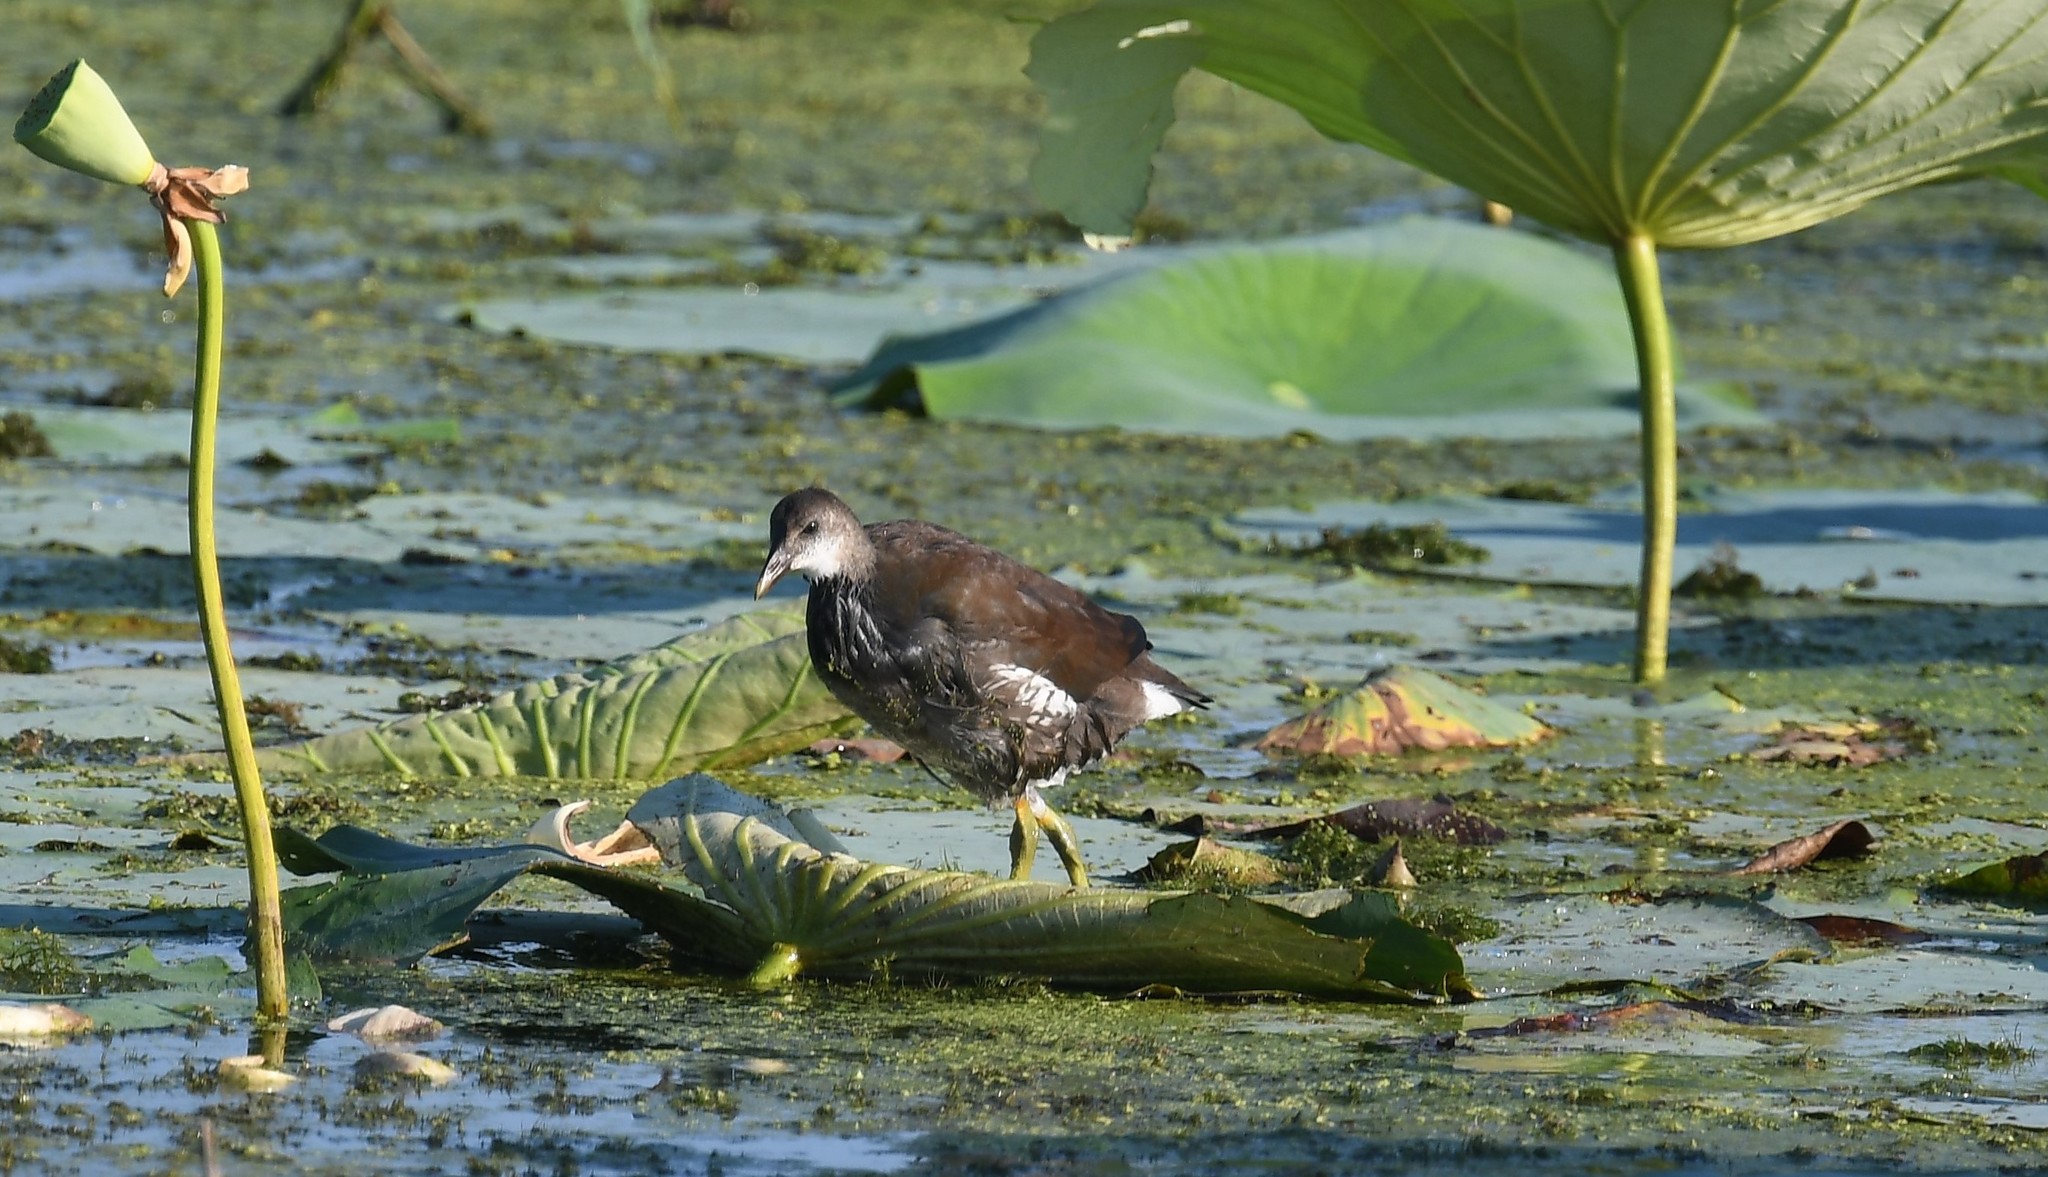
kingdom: Animalia
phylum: Chordata
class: Aves
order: Gruiformes
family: Rallidae
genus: Gallinula
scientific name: Gallinula chloropus
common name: Common moorhen
